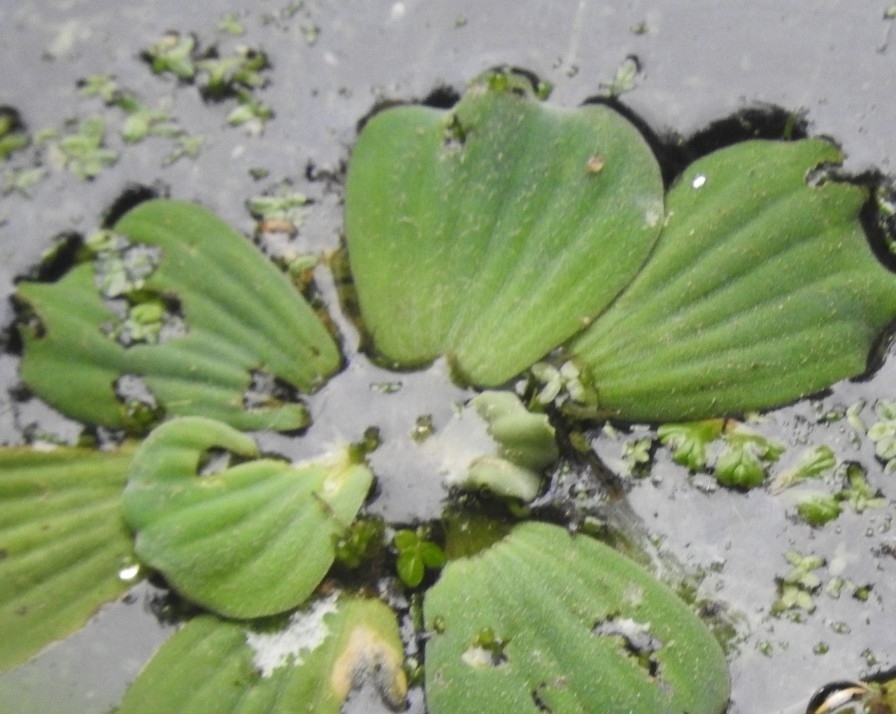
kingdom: Plantae
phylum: Tracheophyta
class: Liliopsida
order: Alismatales
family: Araceae
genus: Pistia
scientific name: Pistia stratiotes
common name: Water lettuce
